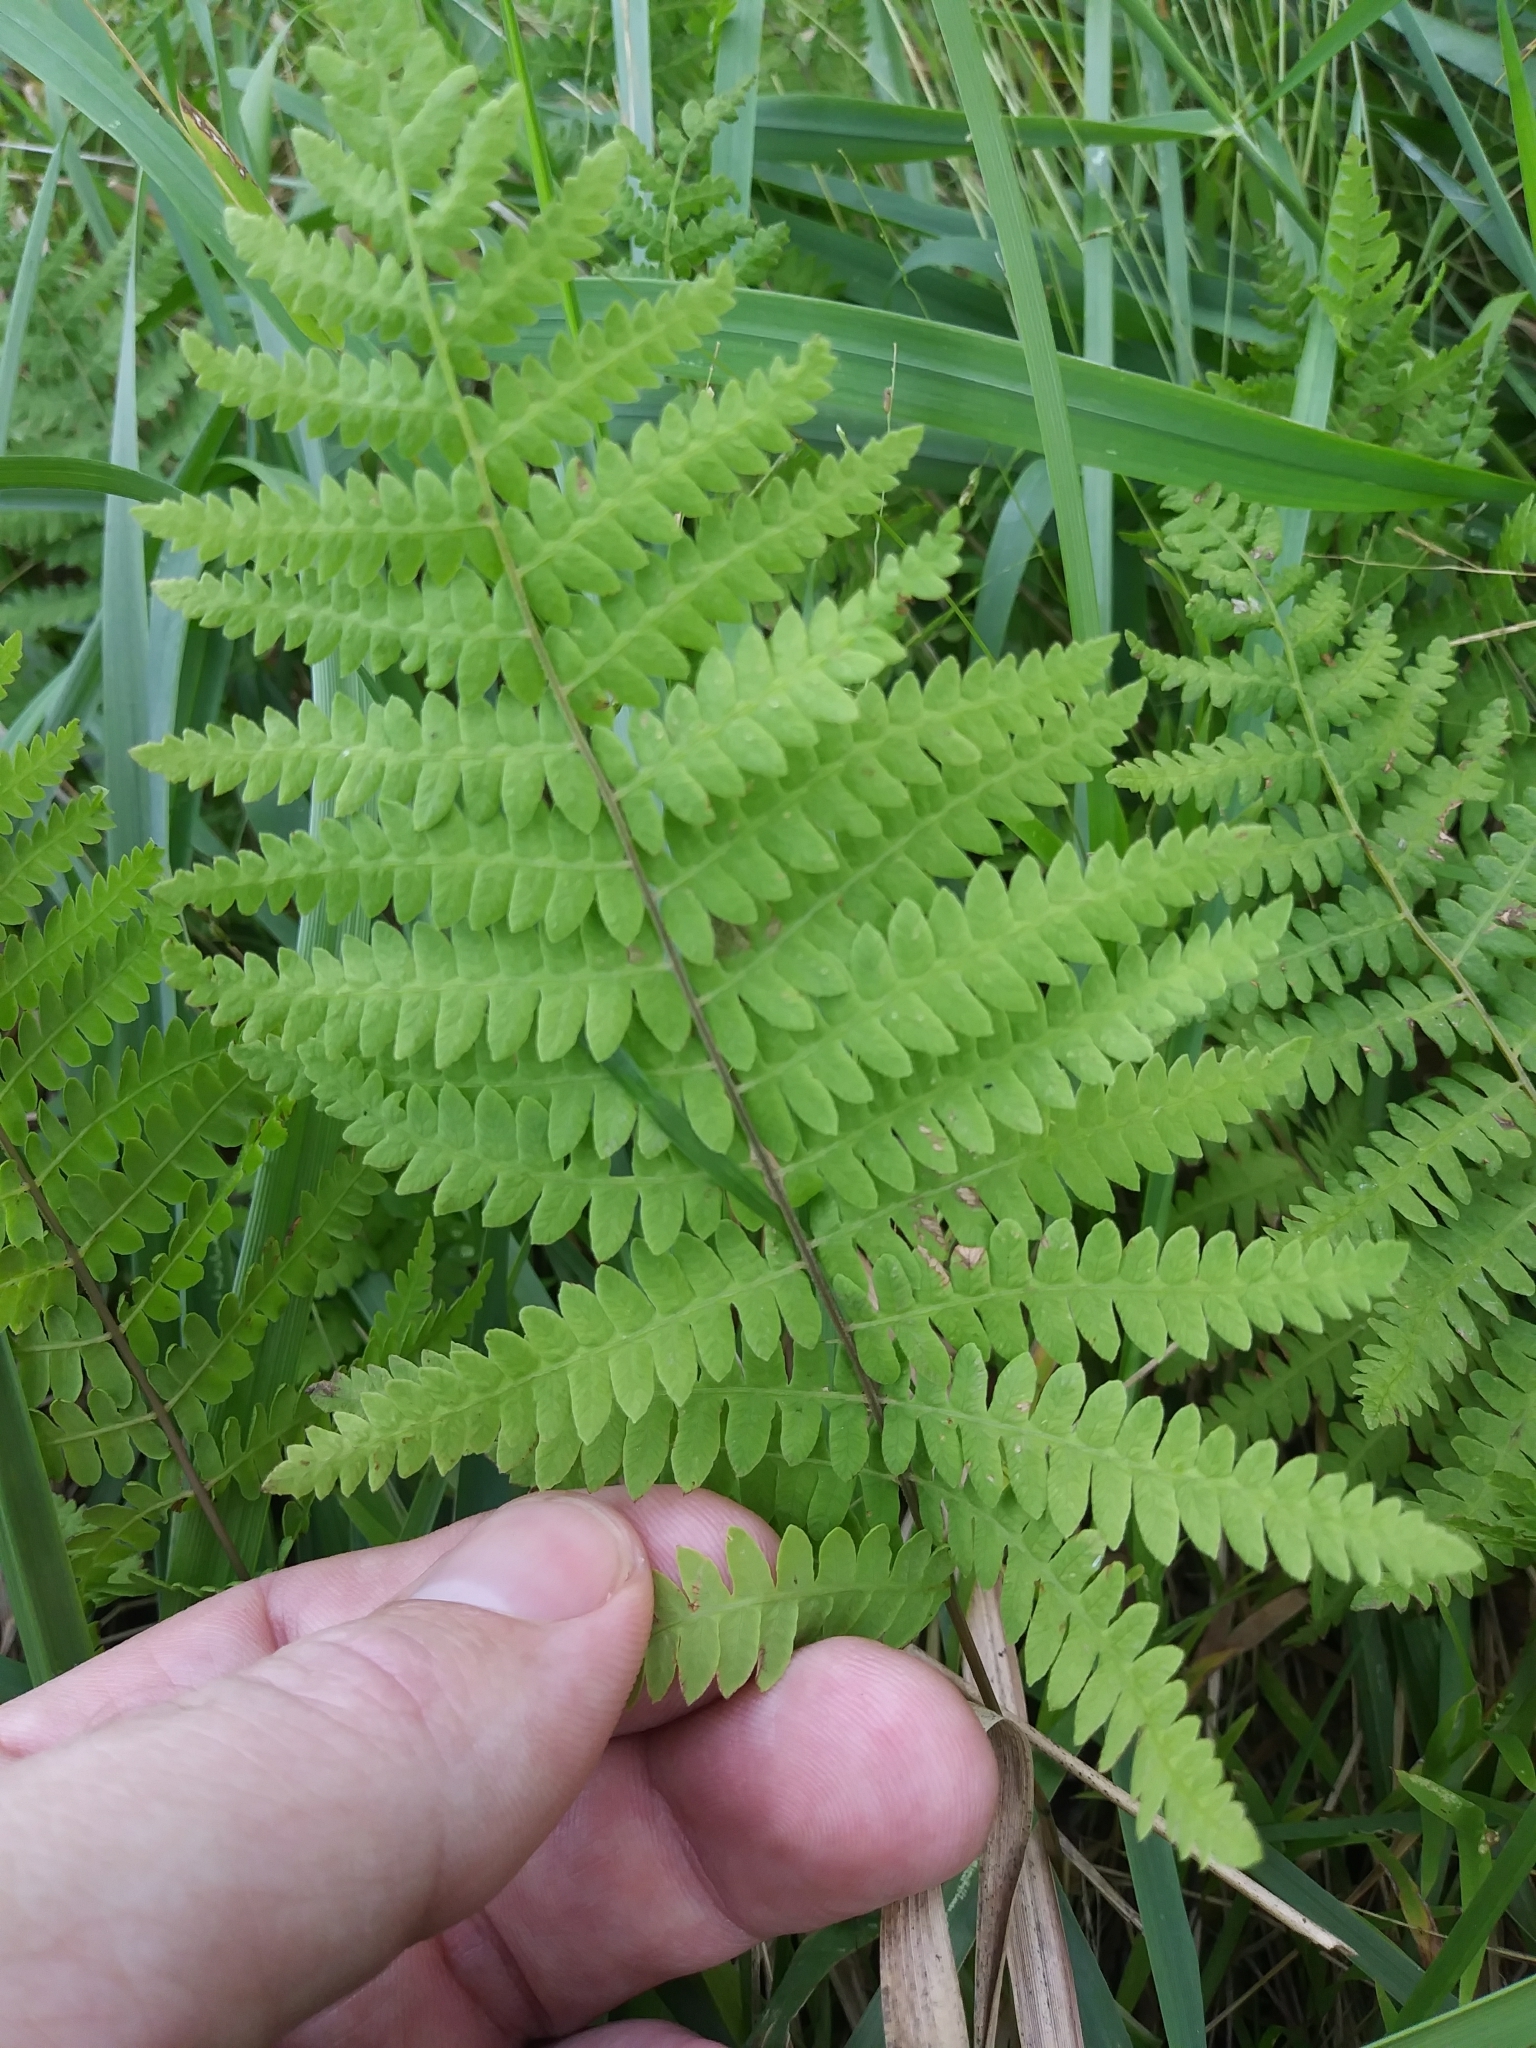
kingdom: Plantae
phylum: Tracheophyta
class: Polypodiopsida
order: Polypodiales
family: Thelypteridaceae
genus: Thelypteris
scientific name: Thelypteris palustris
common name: Marsh fern
